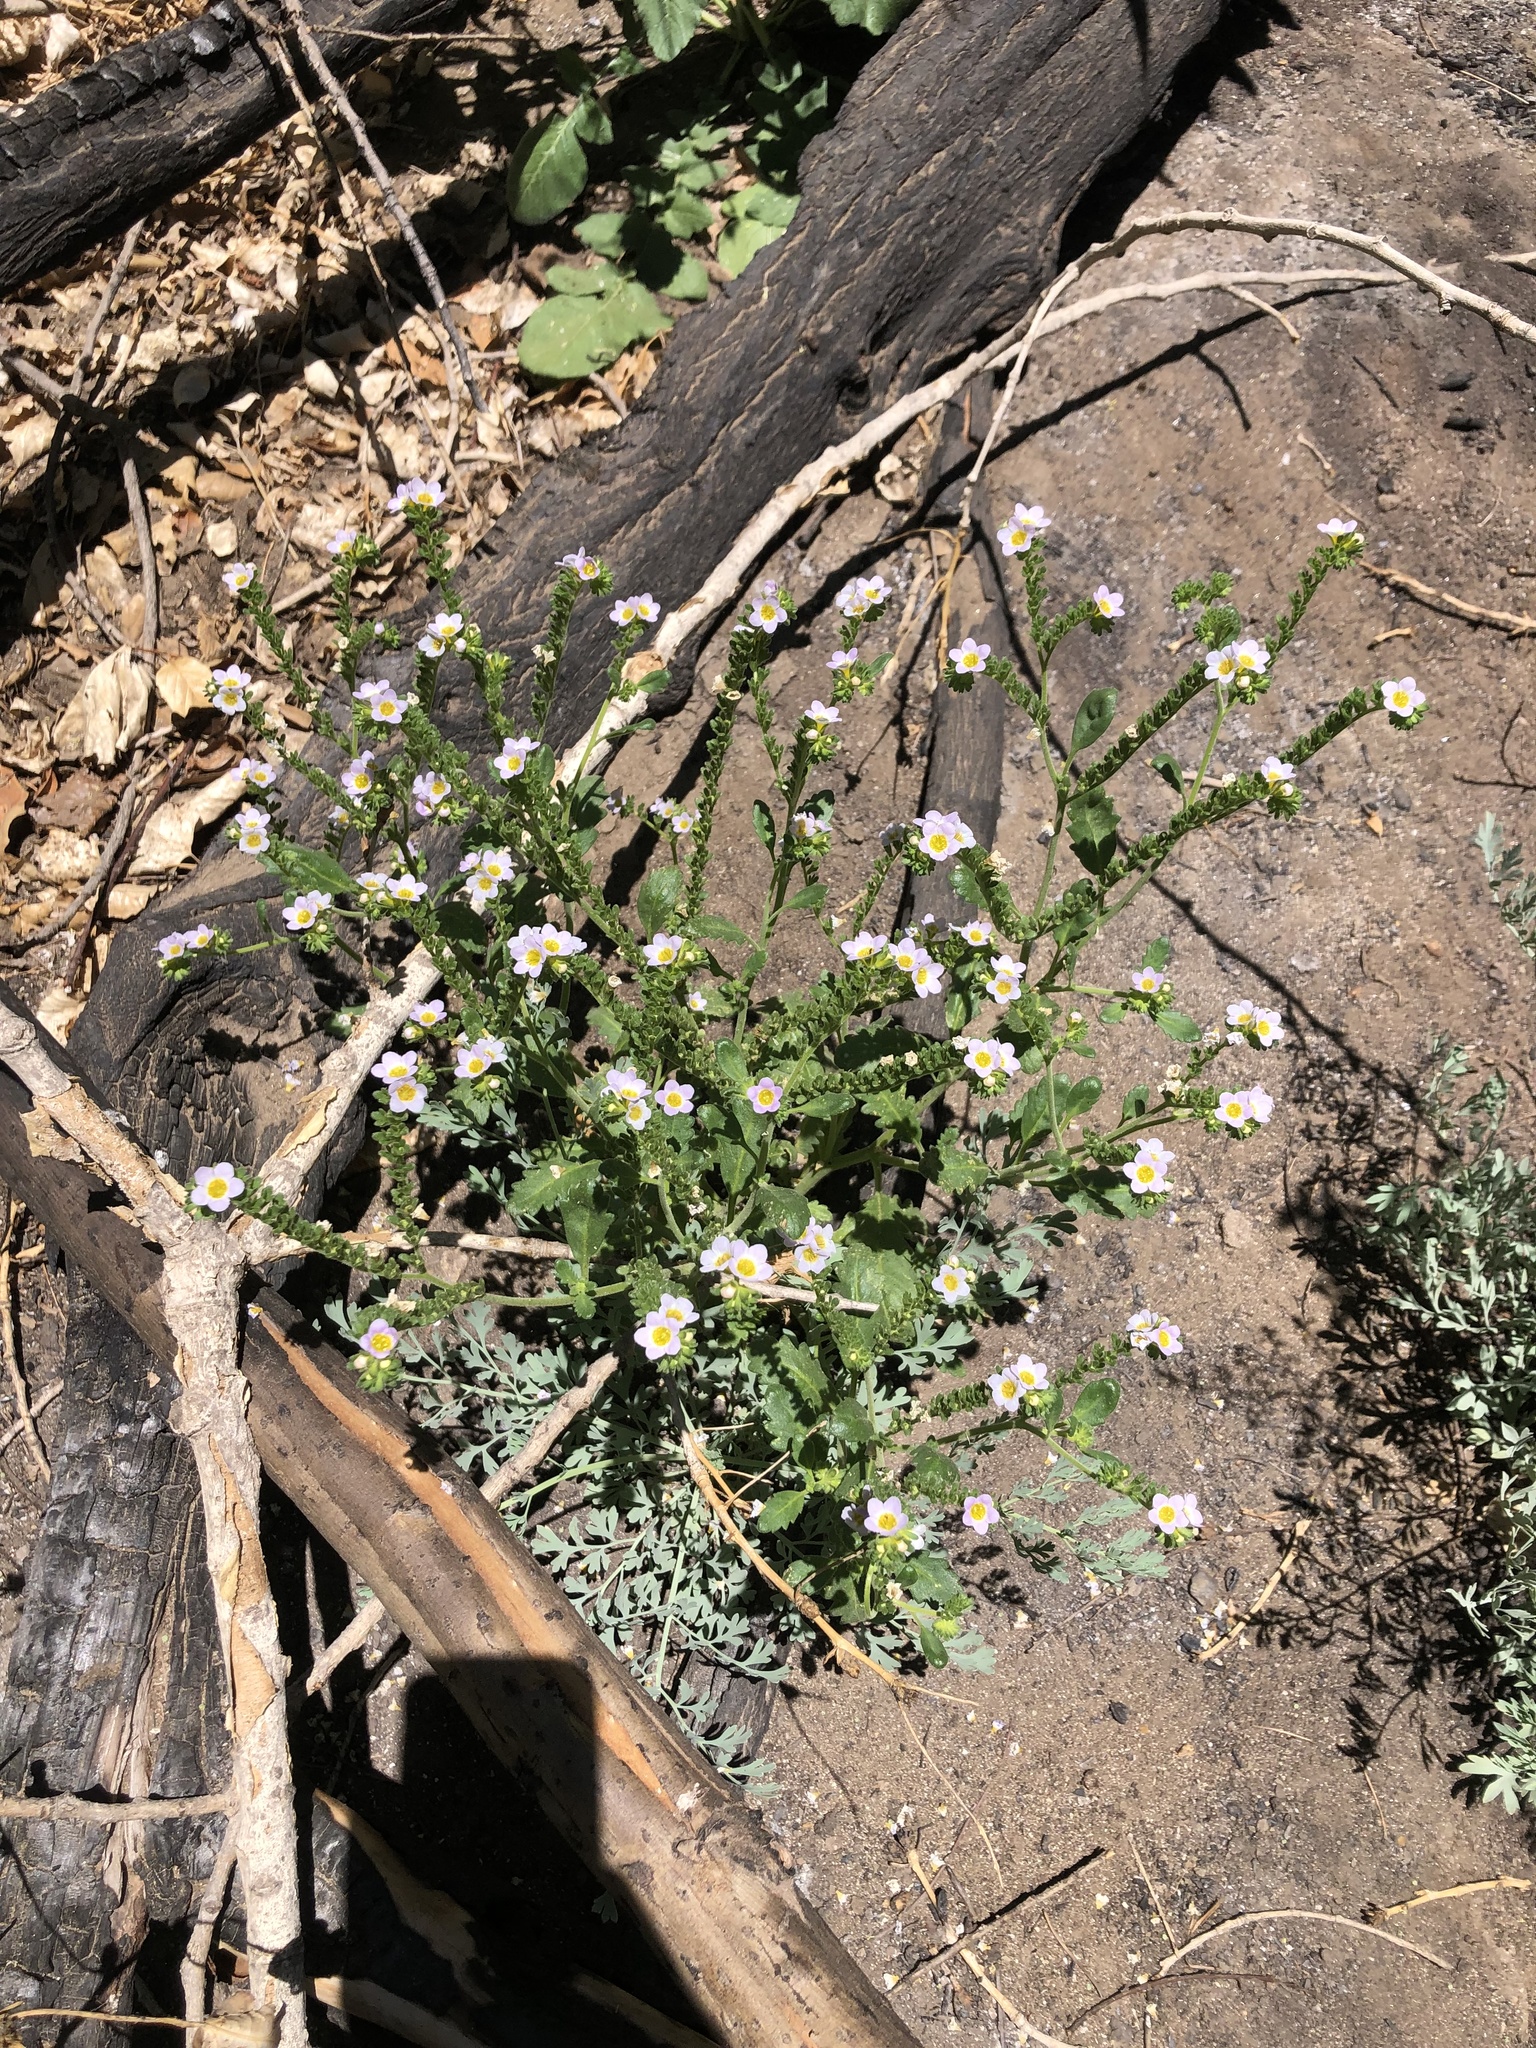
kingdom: Plantae
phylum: Tracheophyta
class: Magnoliopsida
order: Boraginales
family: Hydrophyllaceae
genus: Phacelia
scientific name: Phacelia brachyloba
